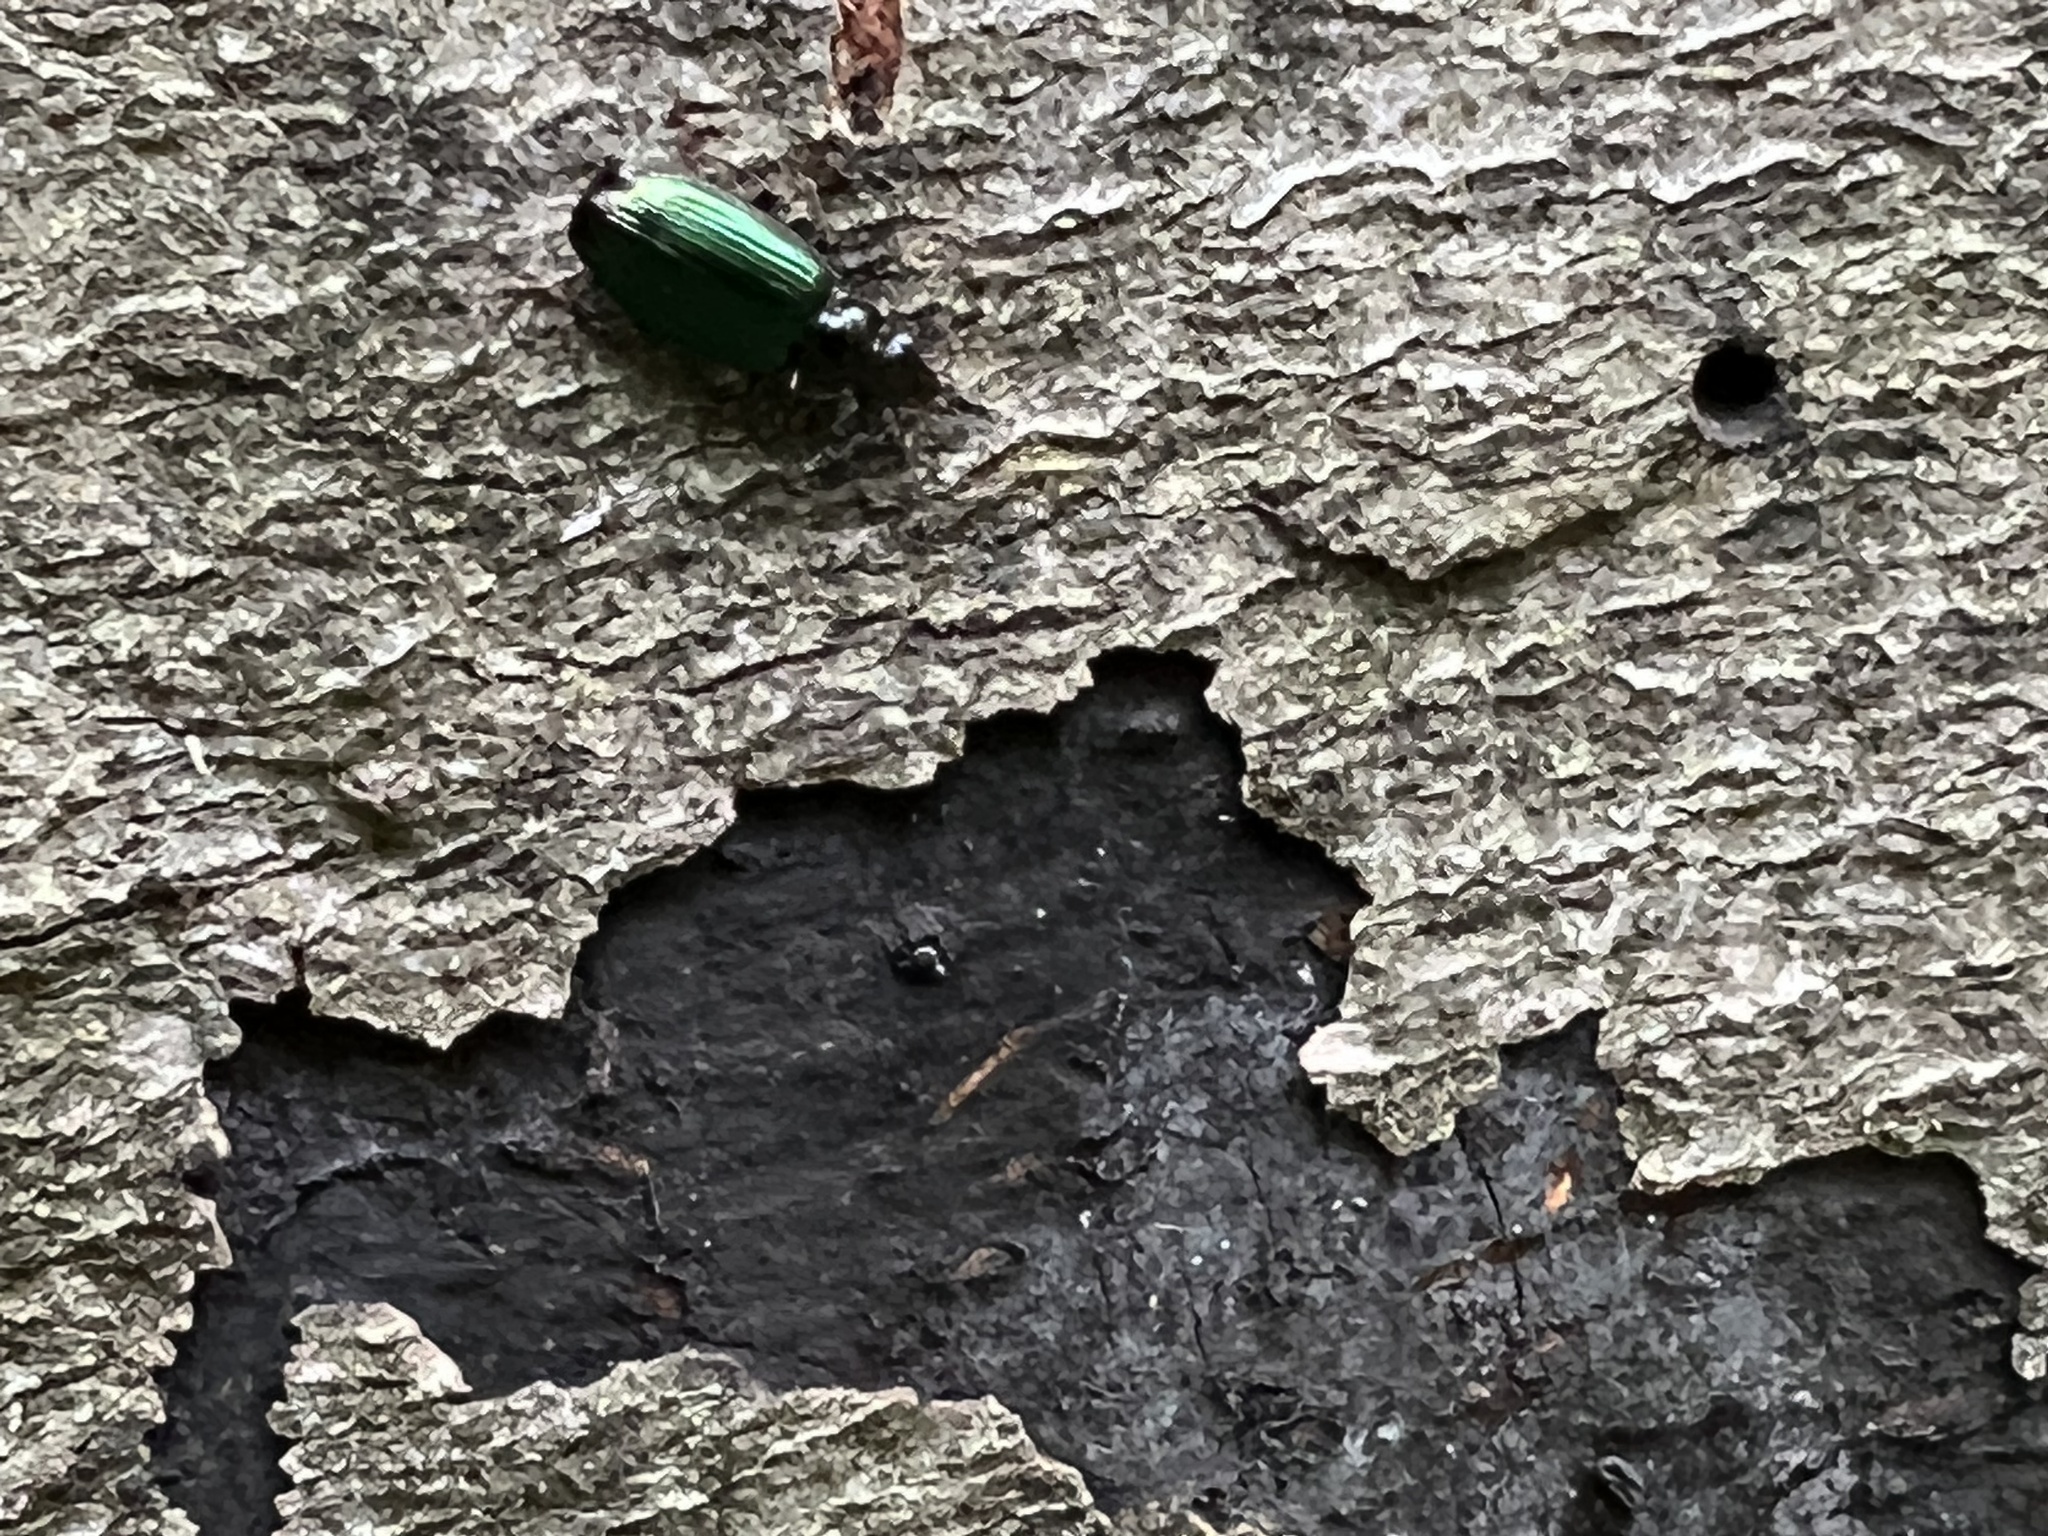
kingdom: Animalia
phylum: Arthropoda
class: Insecta
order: Coleoptera
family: Carabidae
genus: Coptodera
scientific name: Coptodera aerata
